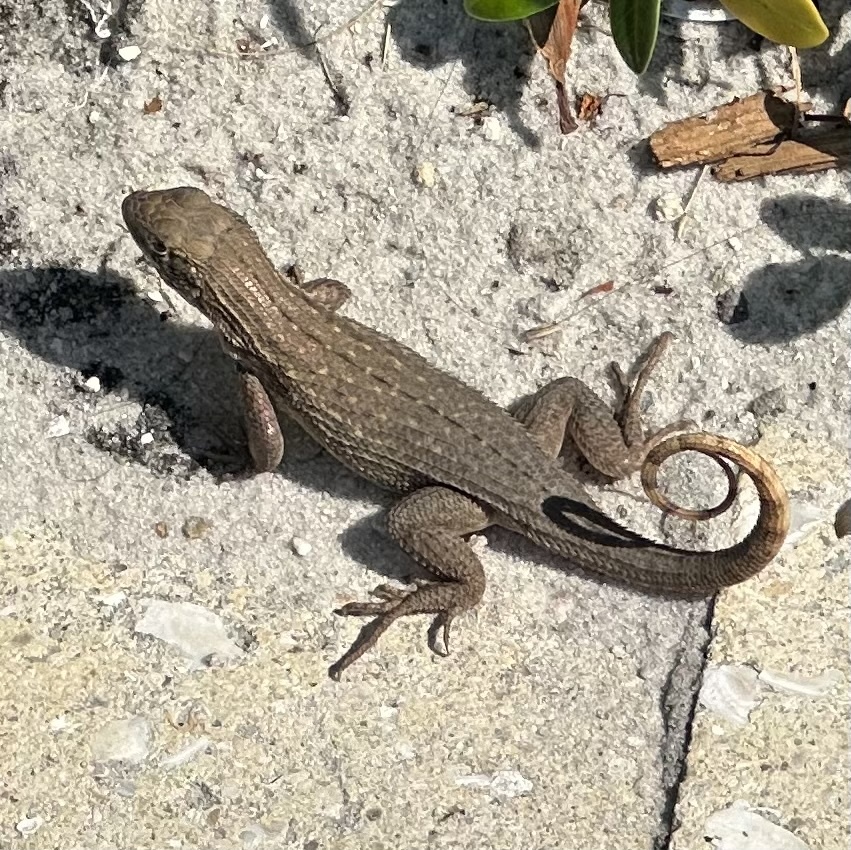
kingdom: Animalia
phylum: Chordata
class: Squamata
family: Leiocephalidae
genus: Leiocephalus
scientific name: Leiocephalus carinatus
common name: Northern curly-tailed lizard
